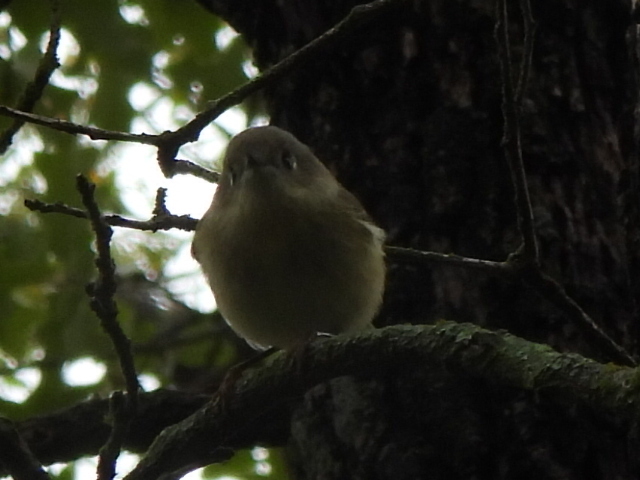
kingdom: Animalia
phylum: Chordata
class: Aves
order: Passeriformes
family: Regulidae
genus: Regulus
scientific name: Regulus calendula
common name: Ruby-crowned kinglet
